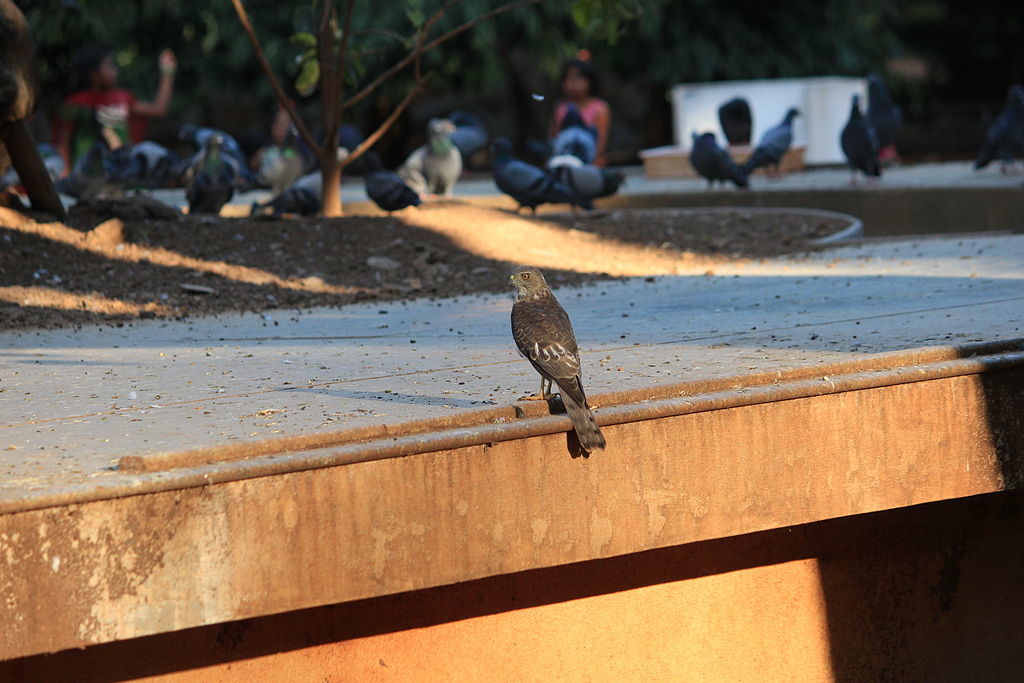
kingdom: Animalia
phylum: Chordata
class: Aves
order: Accipitriformes
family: Accipitridae
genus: Accipiter
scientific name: Accipiter badius
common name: Shikra
